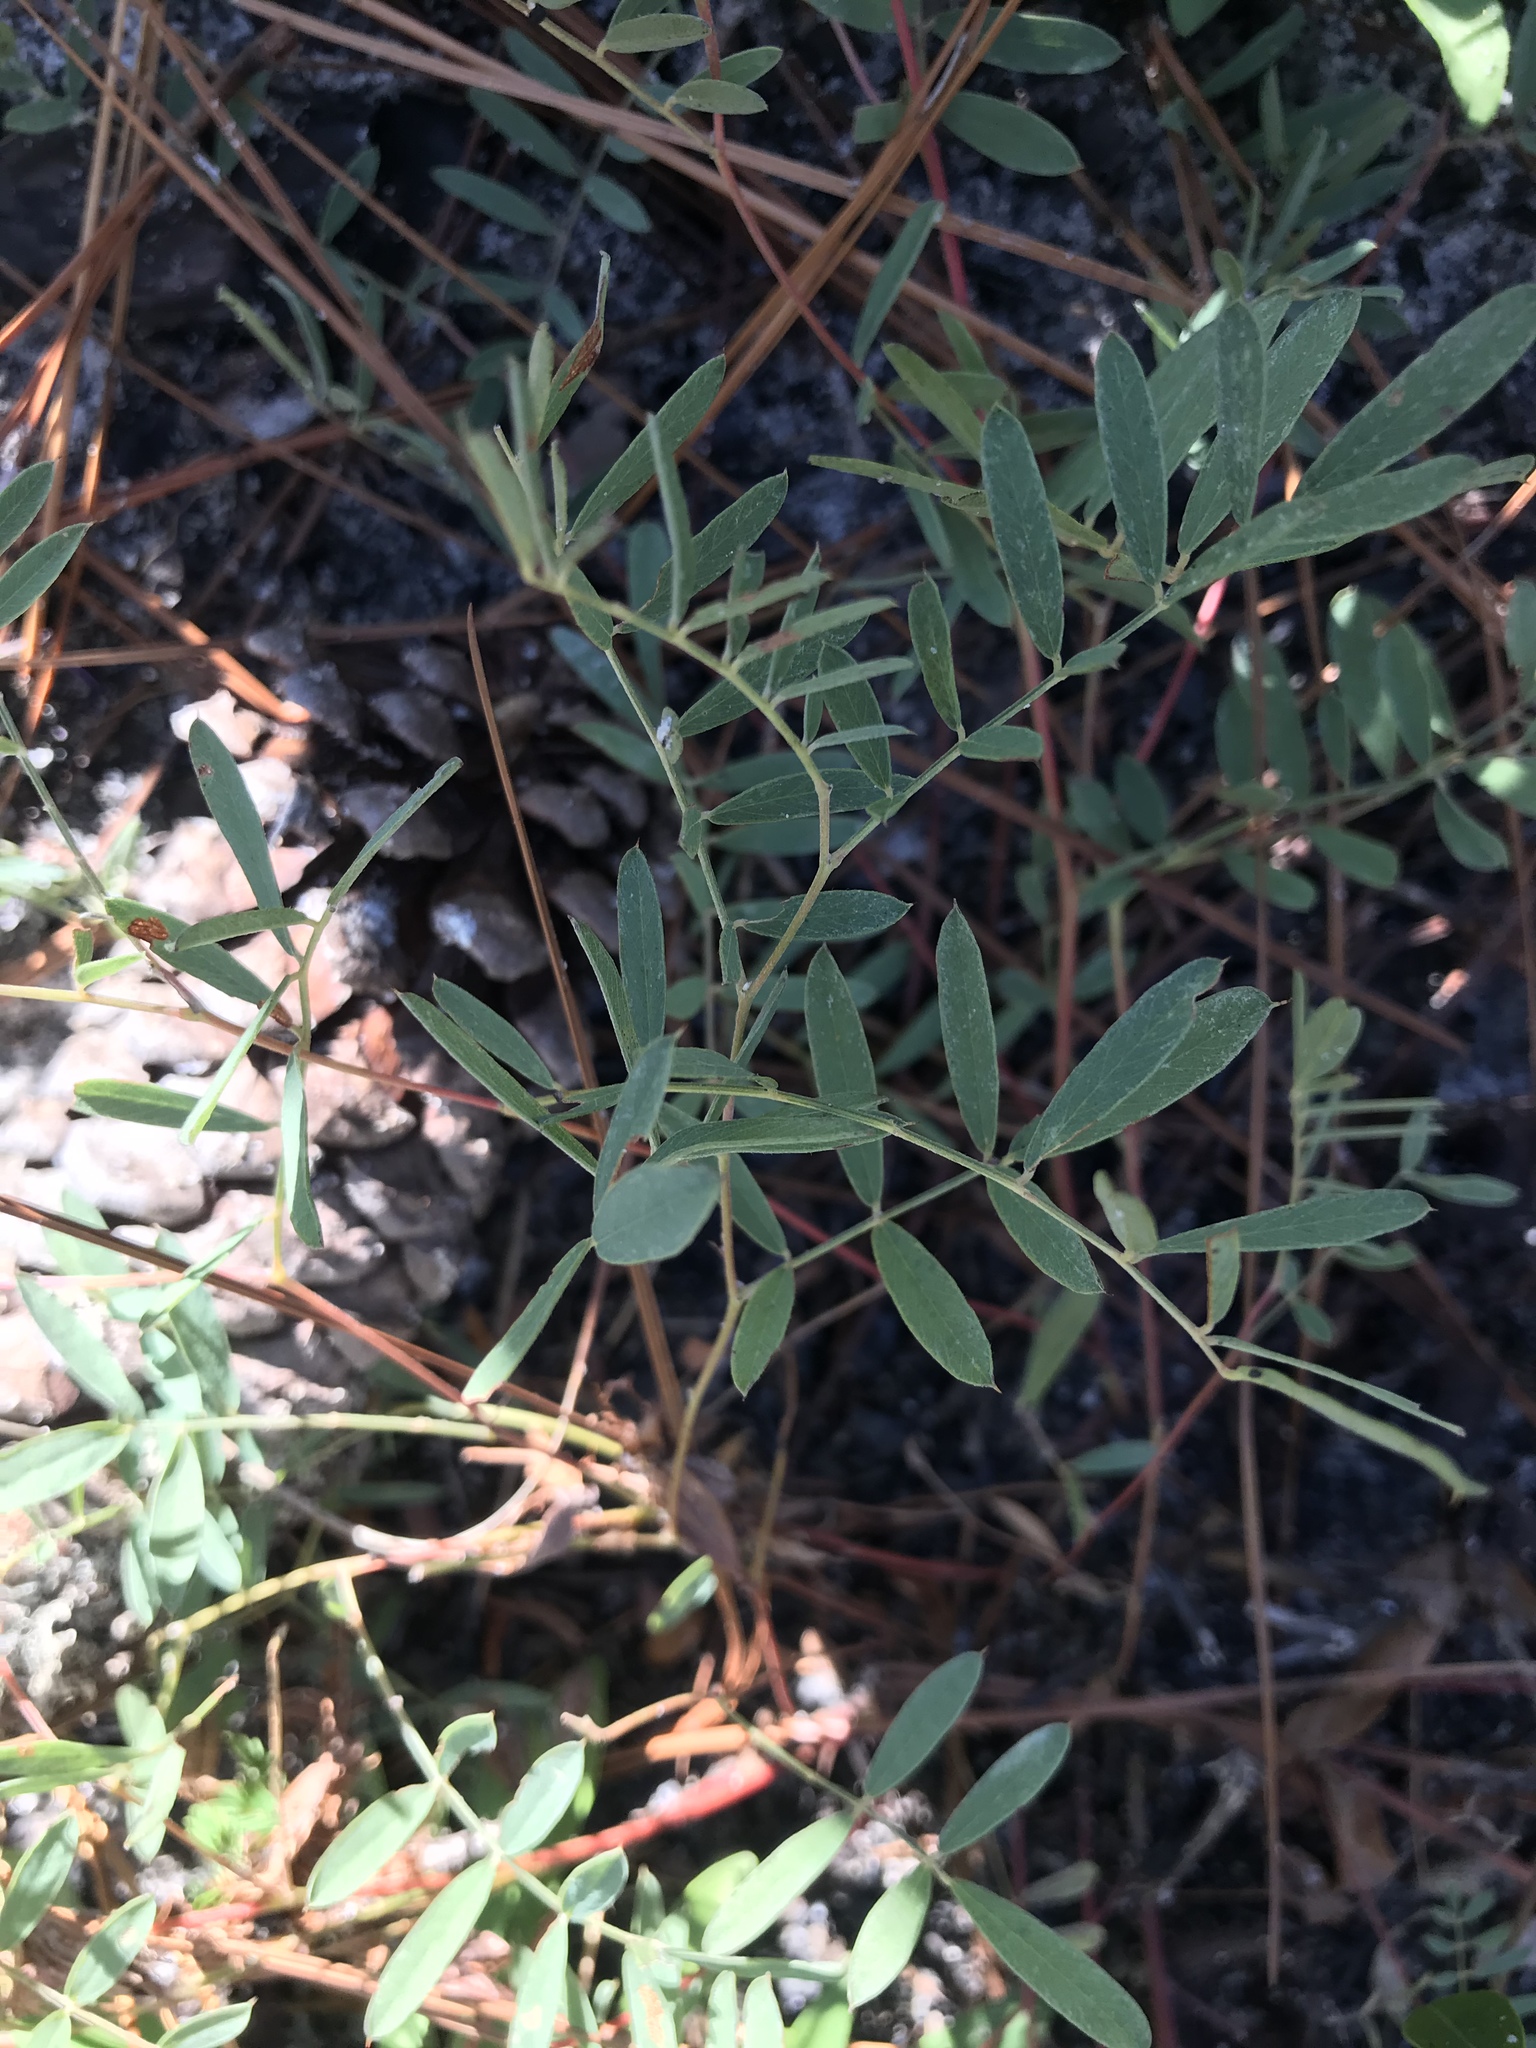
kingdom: Plantae
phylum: Tracheophyta
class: Magnoliopsida
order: Fabales
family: Fabaceae
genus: Tephrosia
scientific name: Tephrosia virginiana
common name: Rabbit-pea
